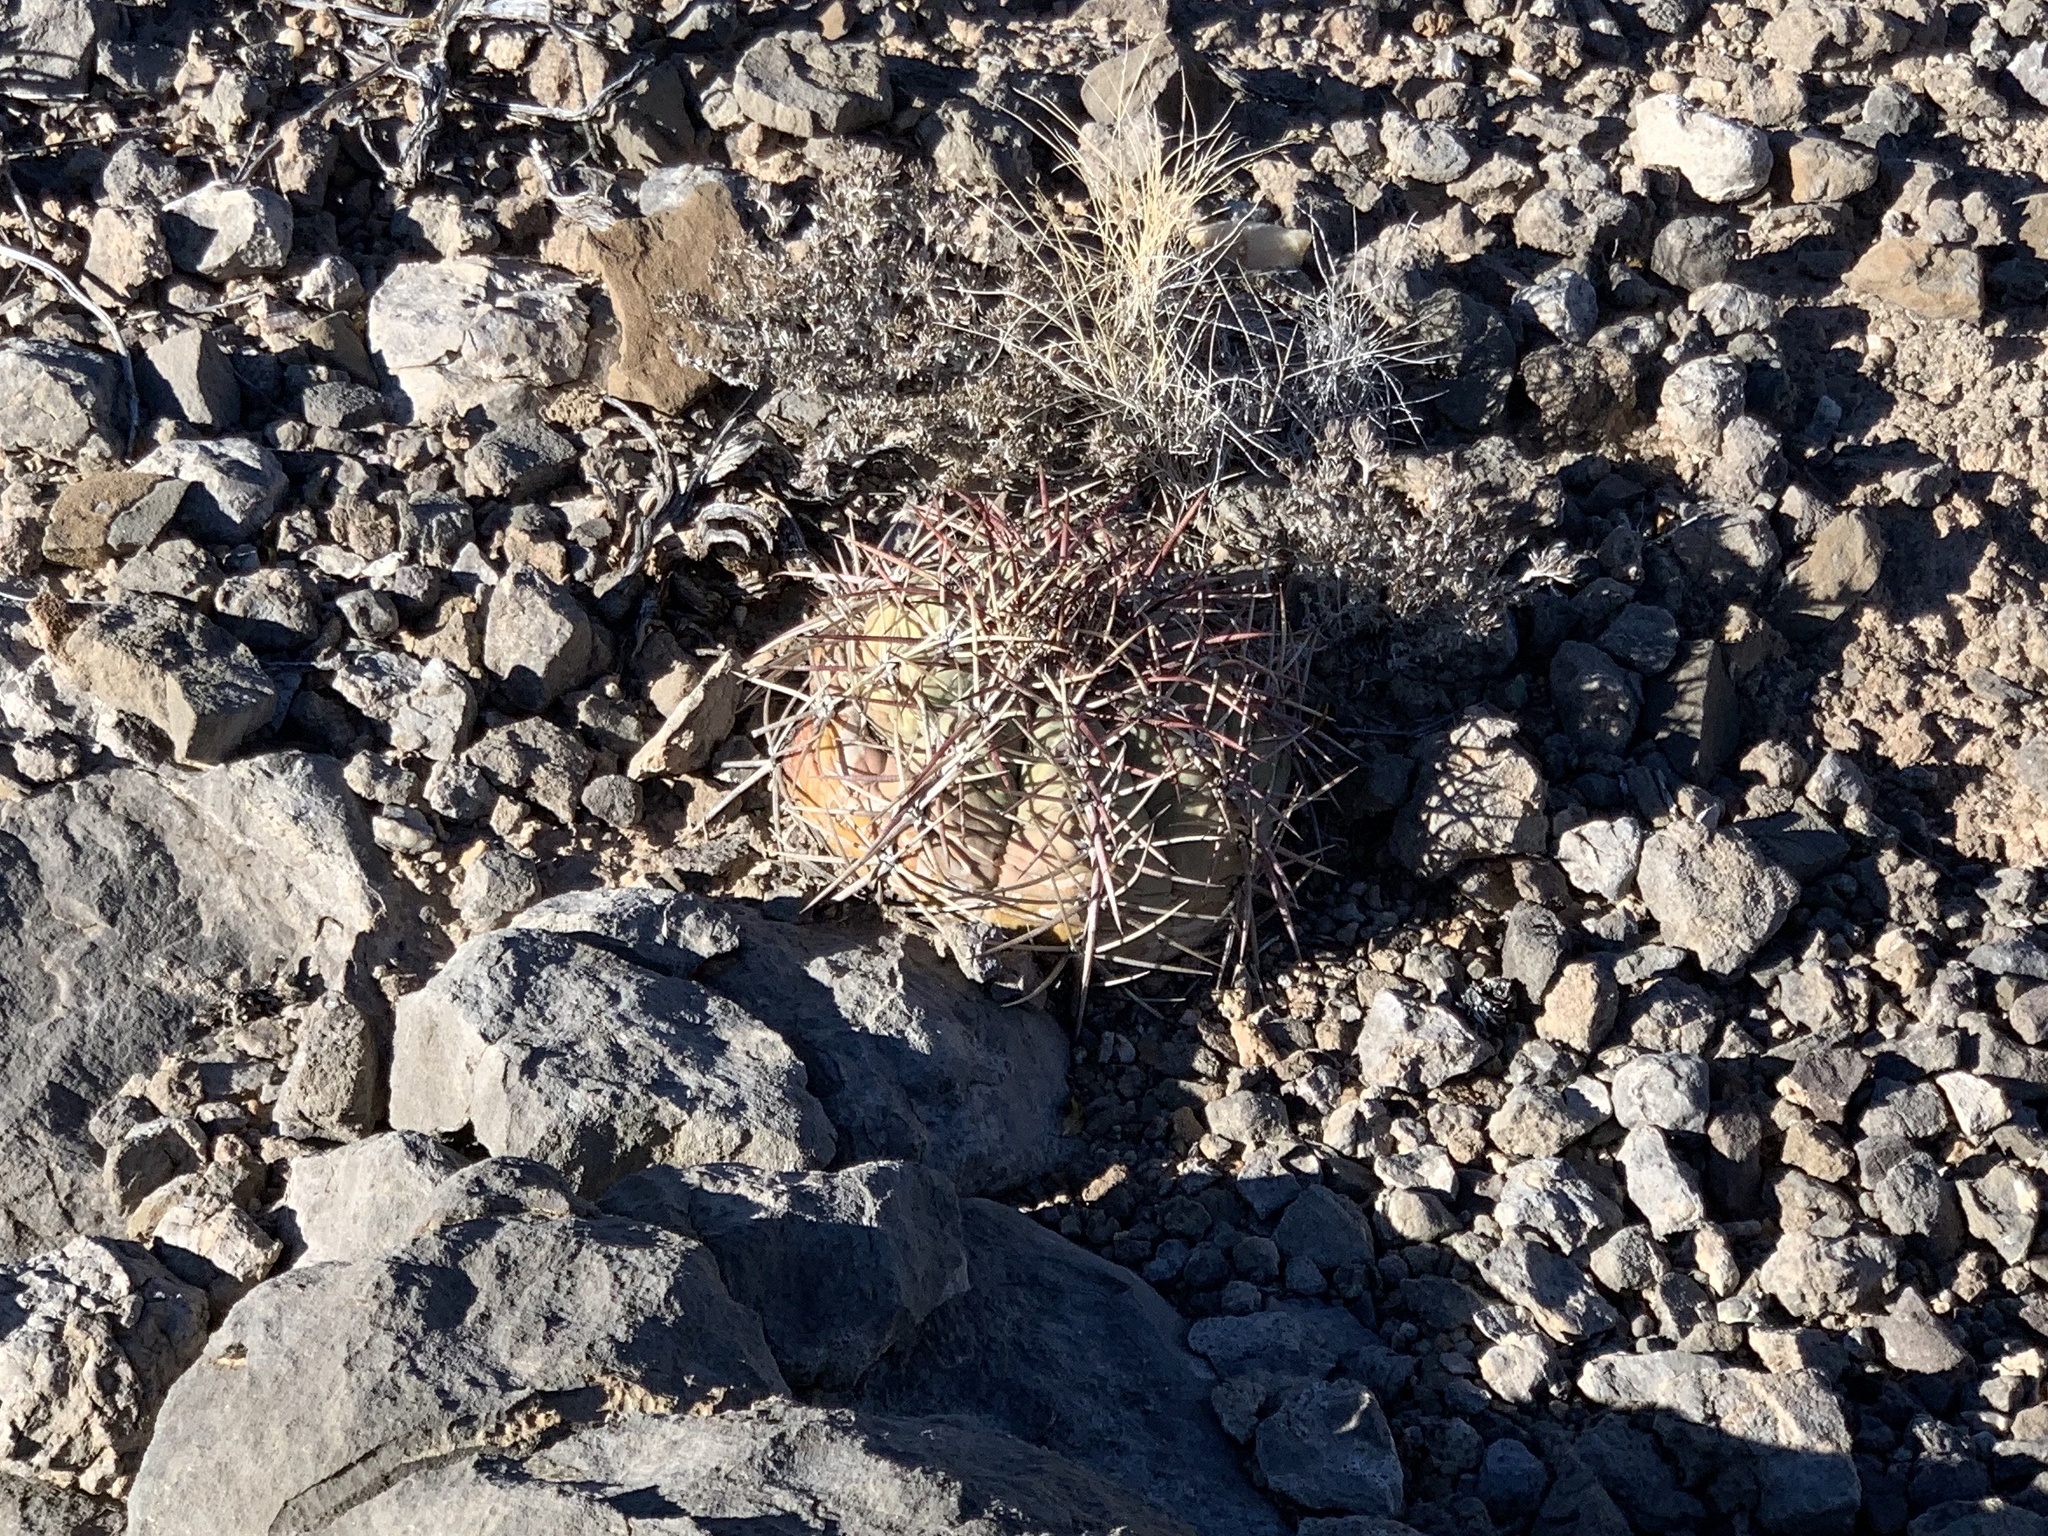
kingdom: Plantae
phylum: Tracheophyta
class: Magnoliopsida
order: Caryophyllales
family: Cactaceae
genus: Echinocactus
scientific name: Echinocactus horizonthalonius
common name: Devilshead
